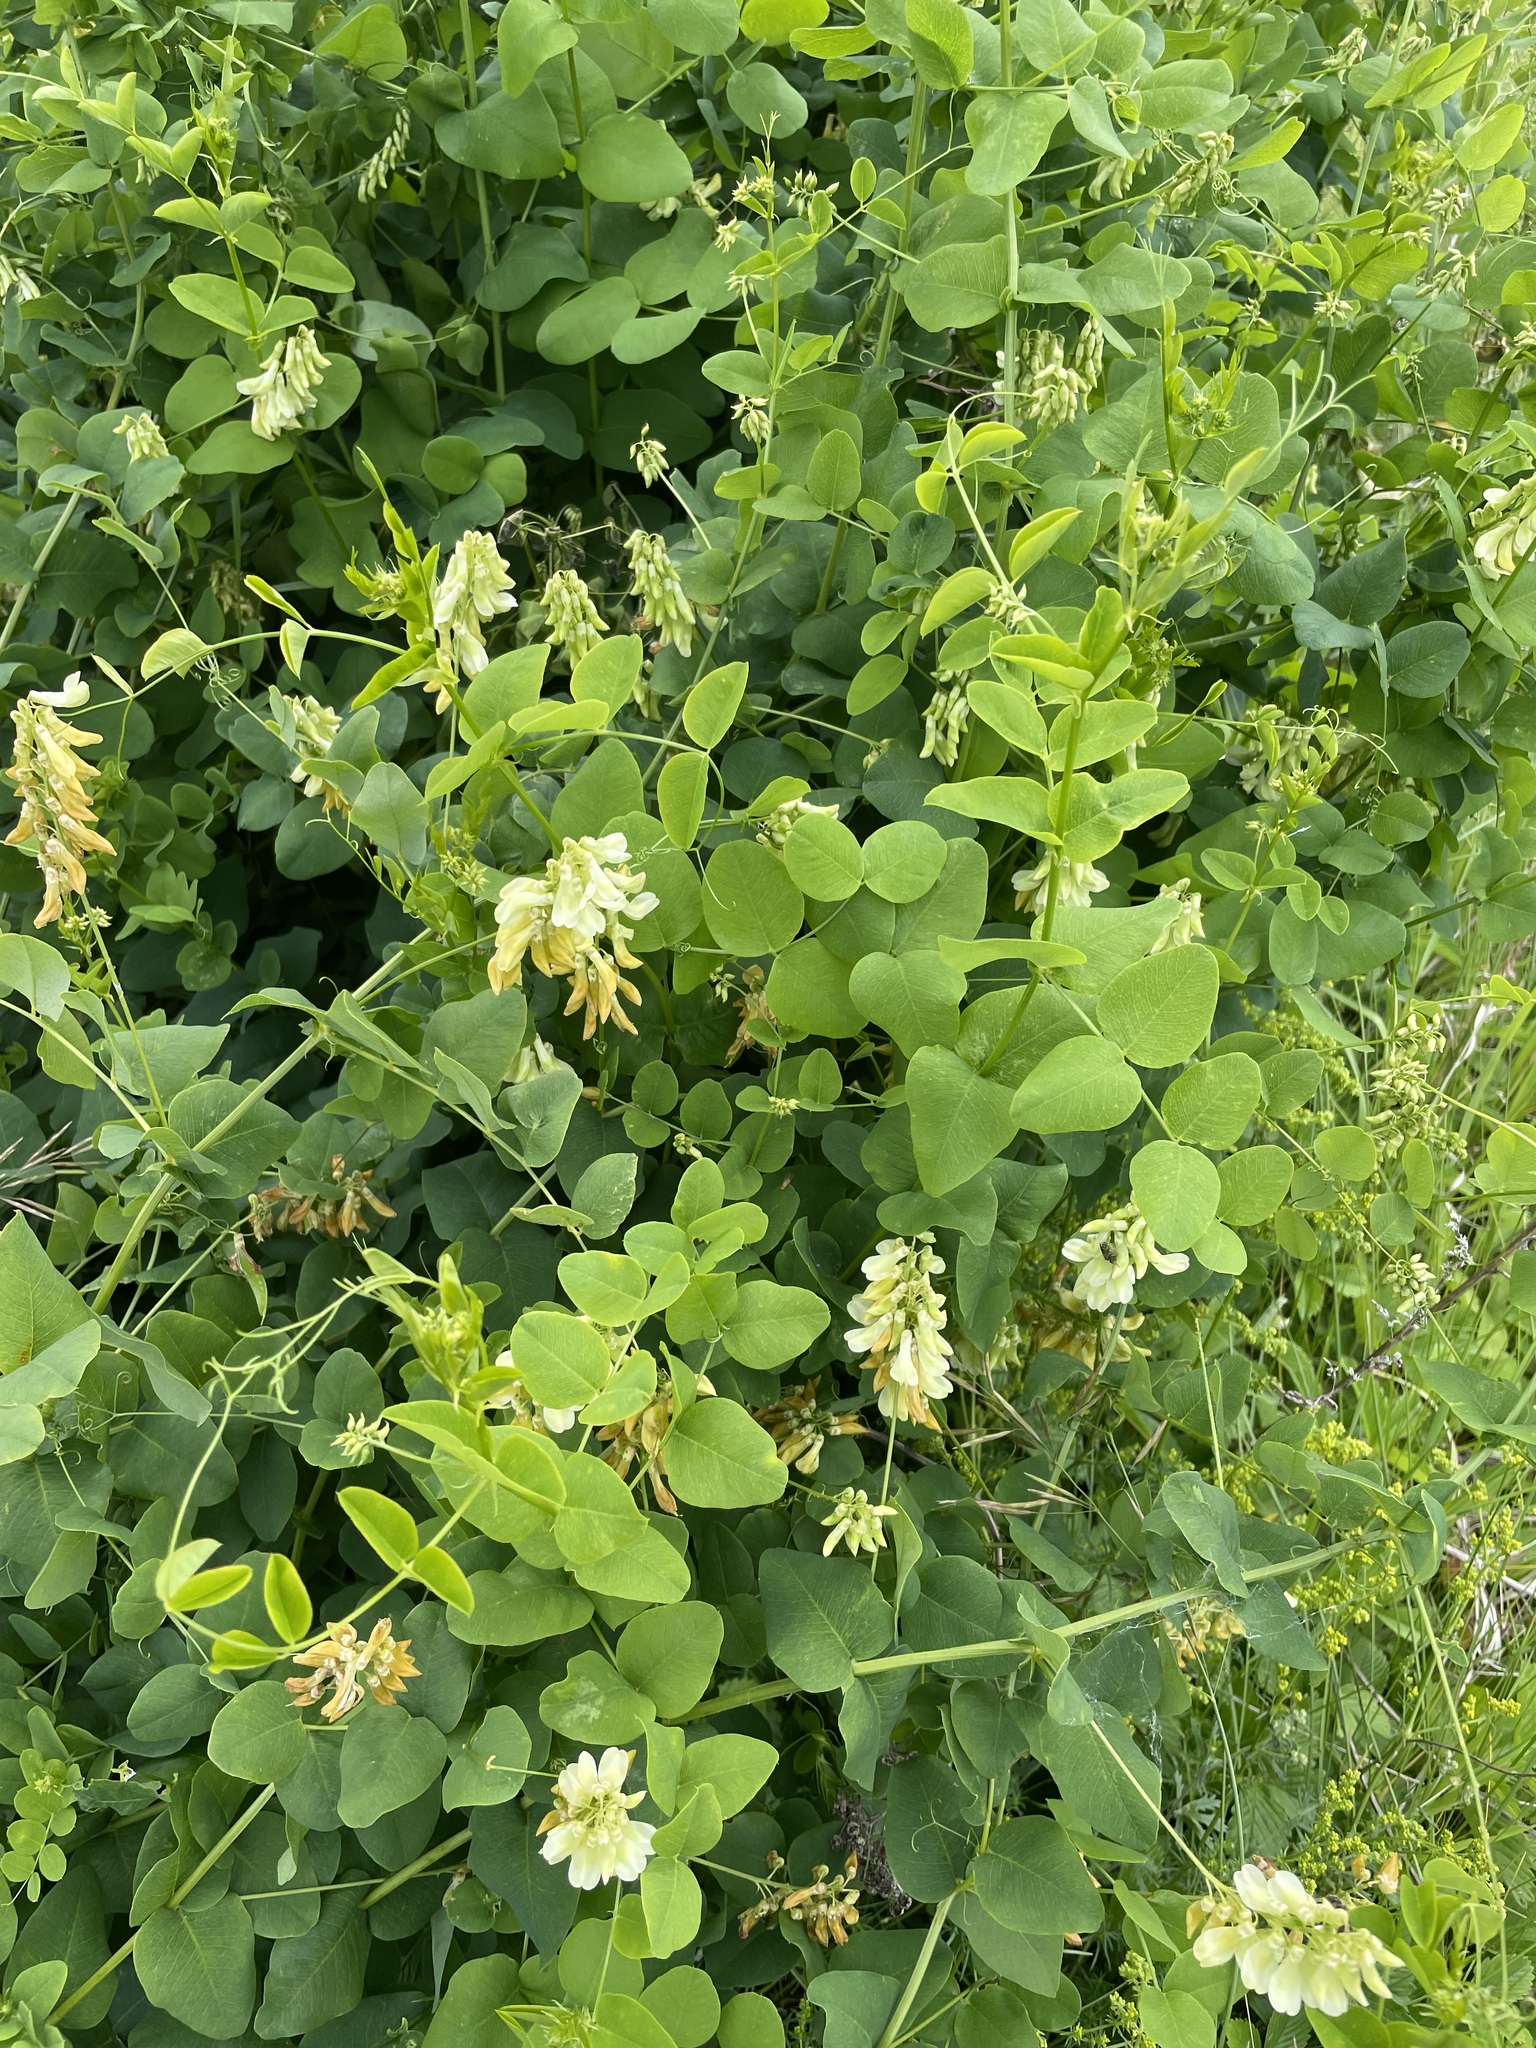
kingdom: Plantae
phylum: Tracheophyta
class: Magnoliopsida
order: Fabales
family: Fabaceae
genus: Vicia
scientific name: Vicia pisiformis
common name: Pale-flower vetch
